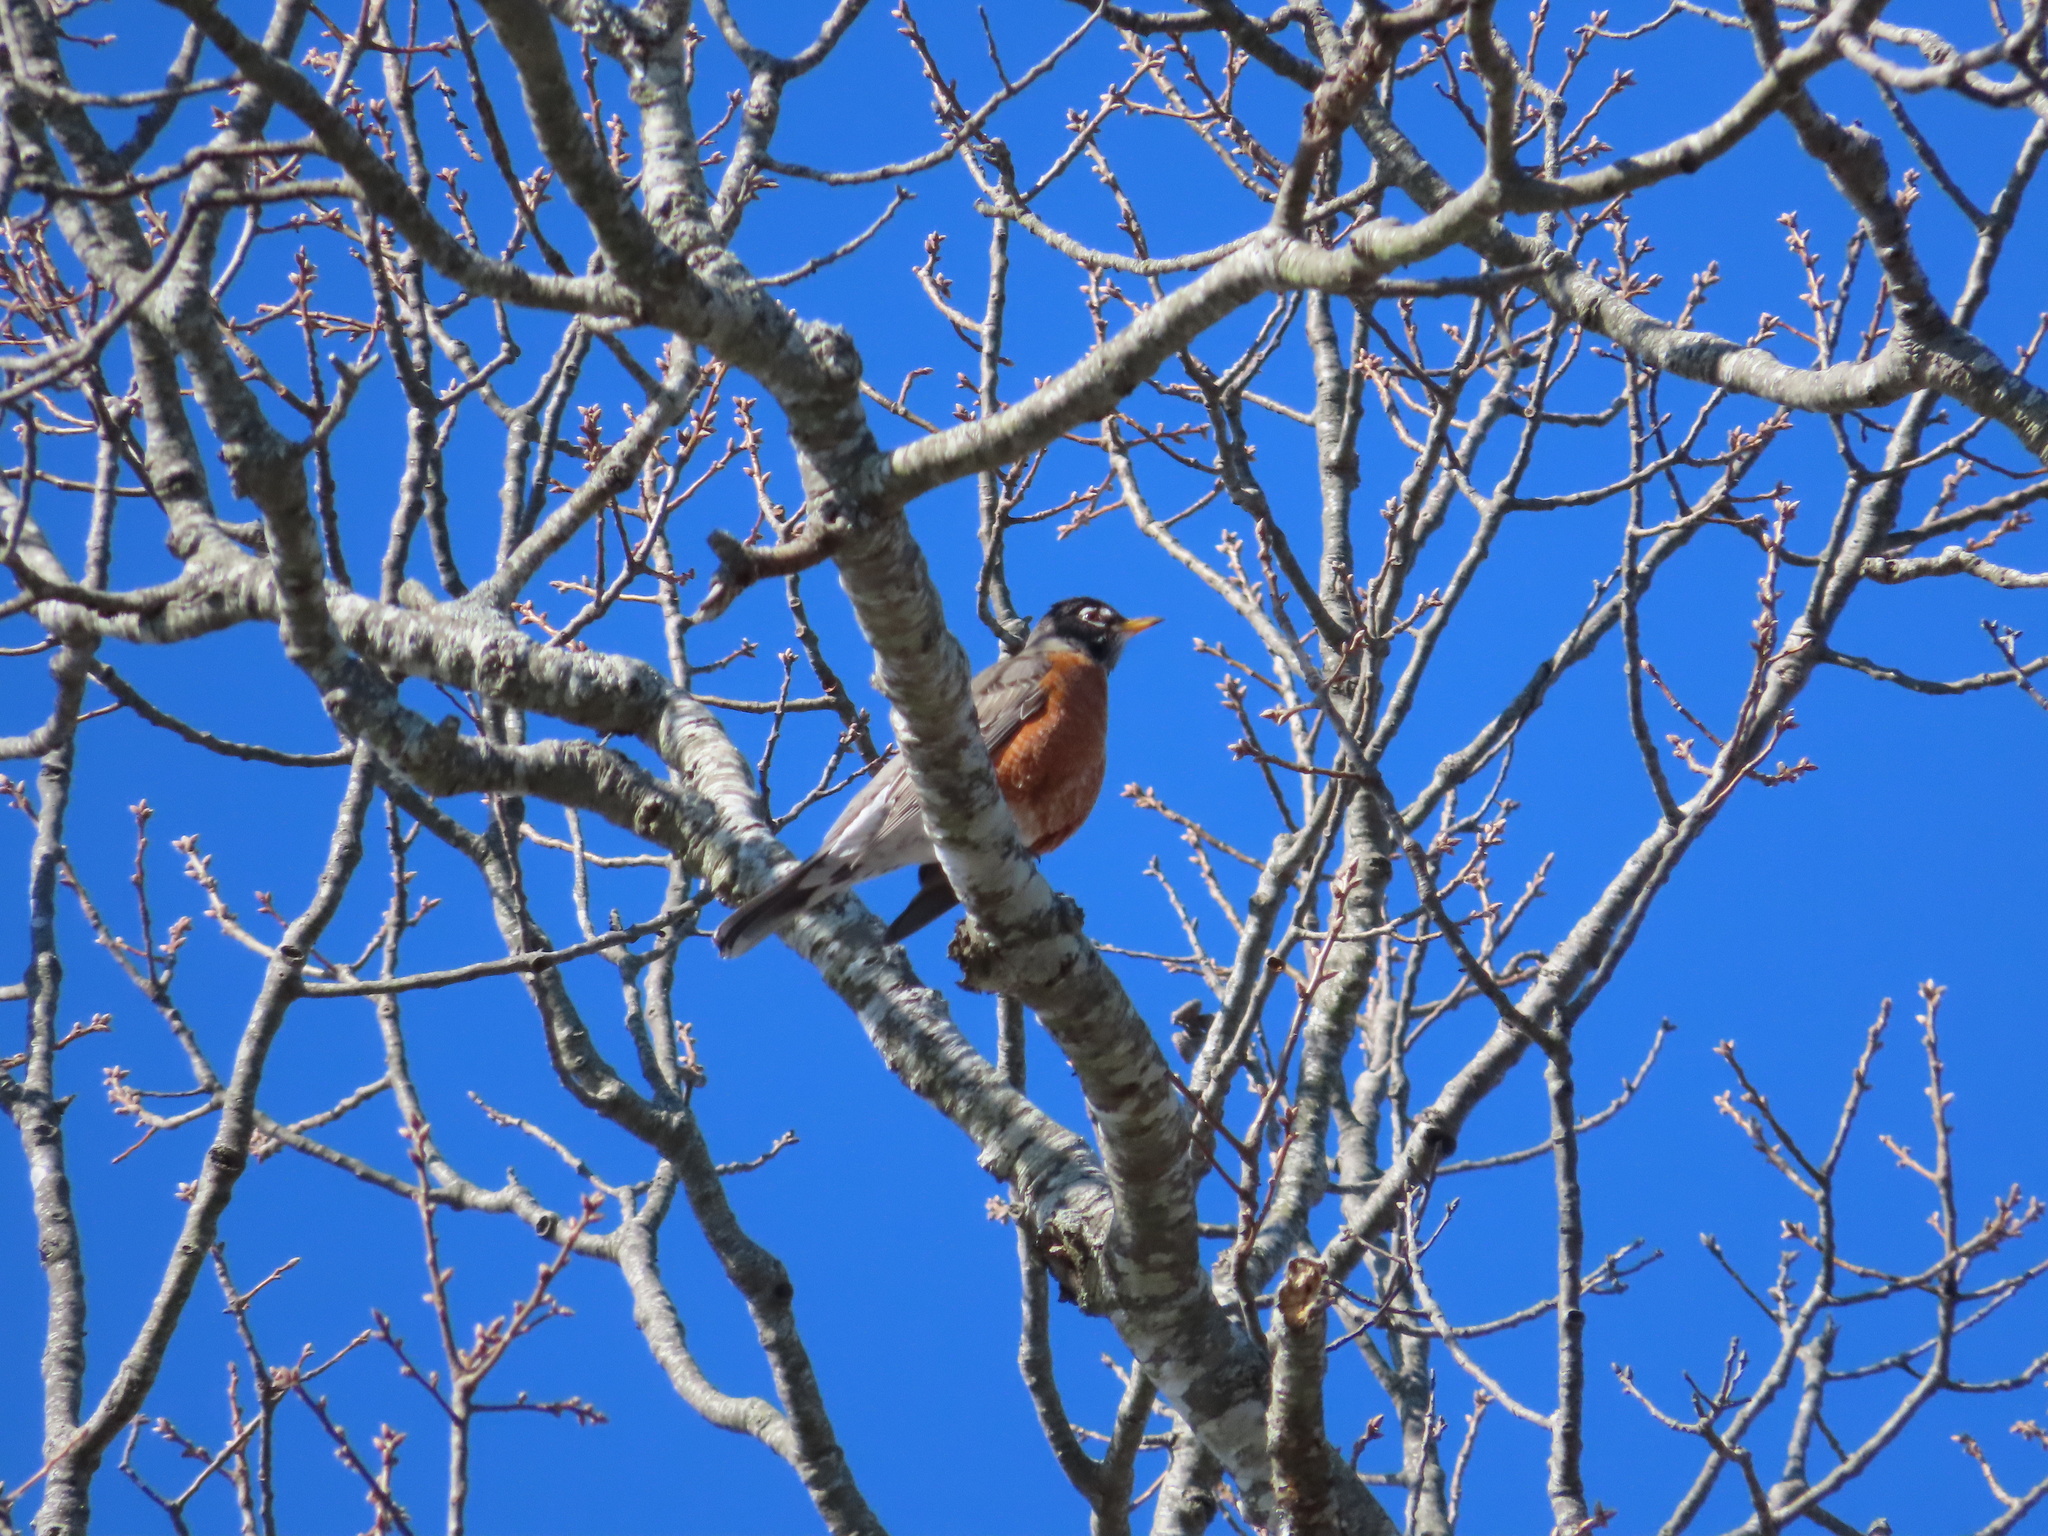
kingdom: Animalia
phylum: Chordata
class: Aves
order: Passeriformes
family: Turdidae
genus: Turdus
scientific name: Turdus migratorius
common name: American robin
